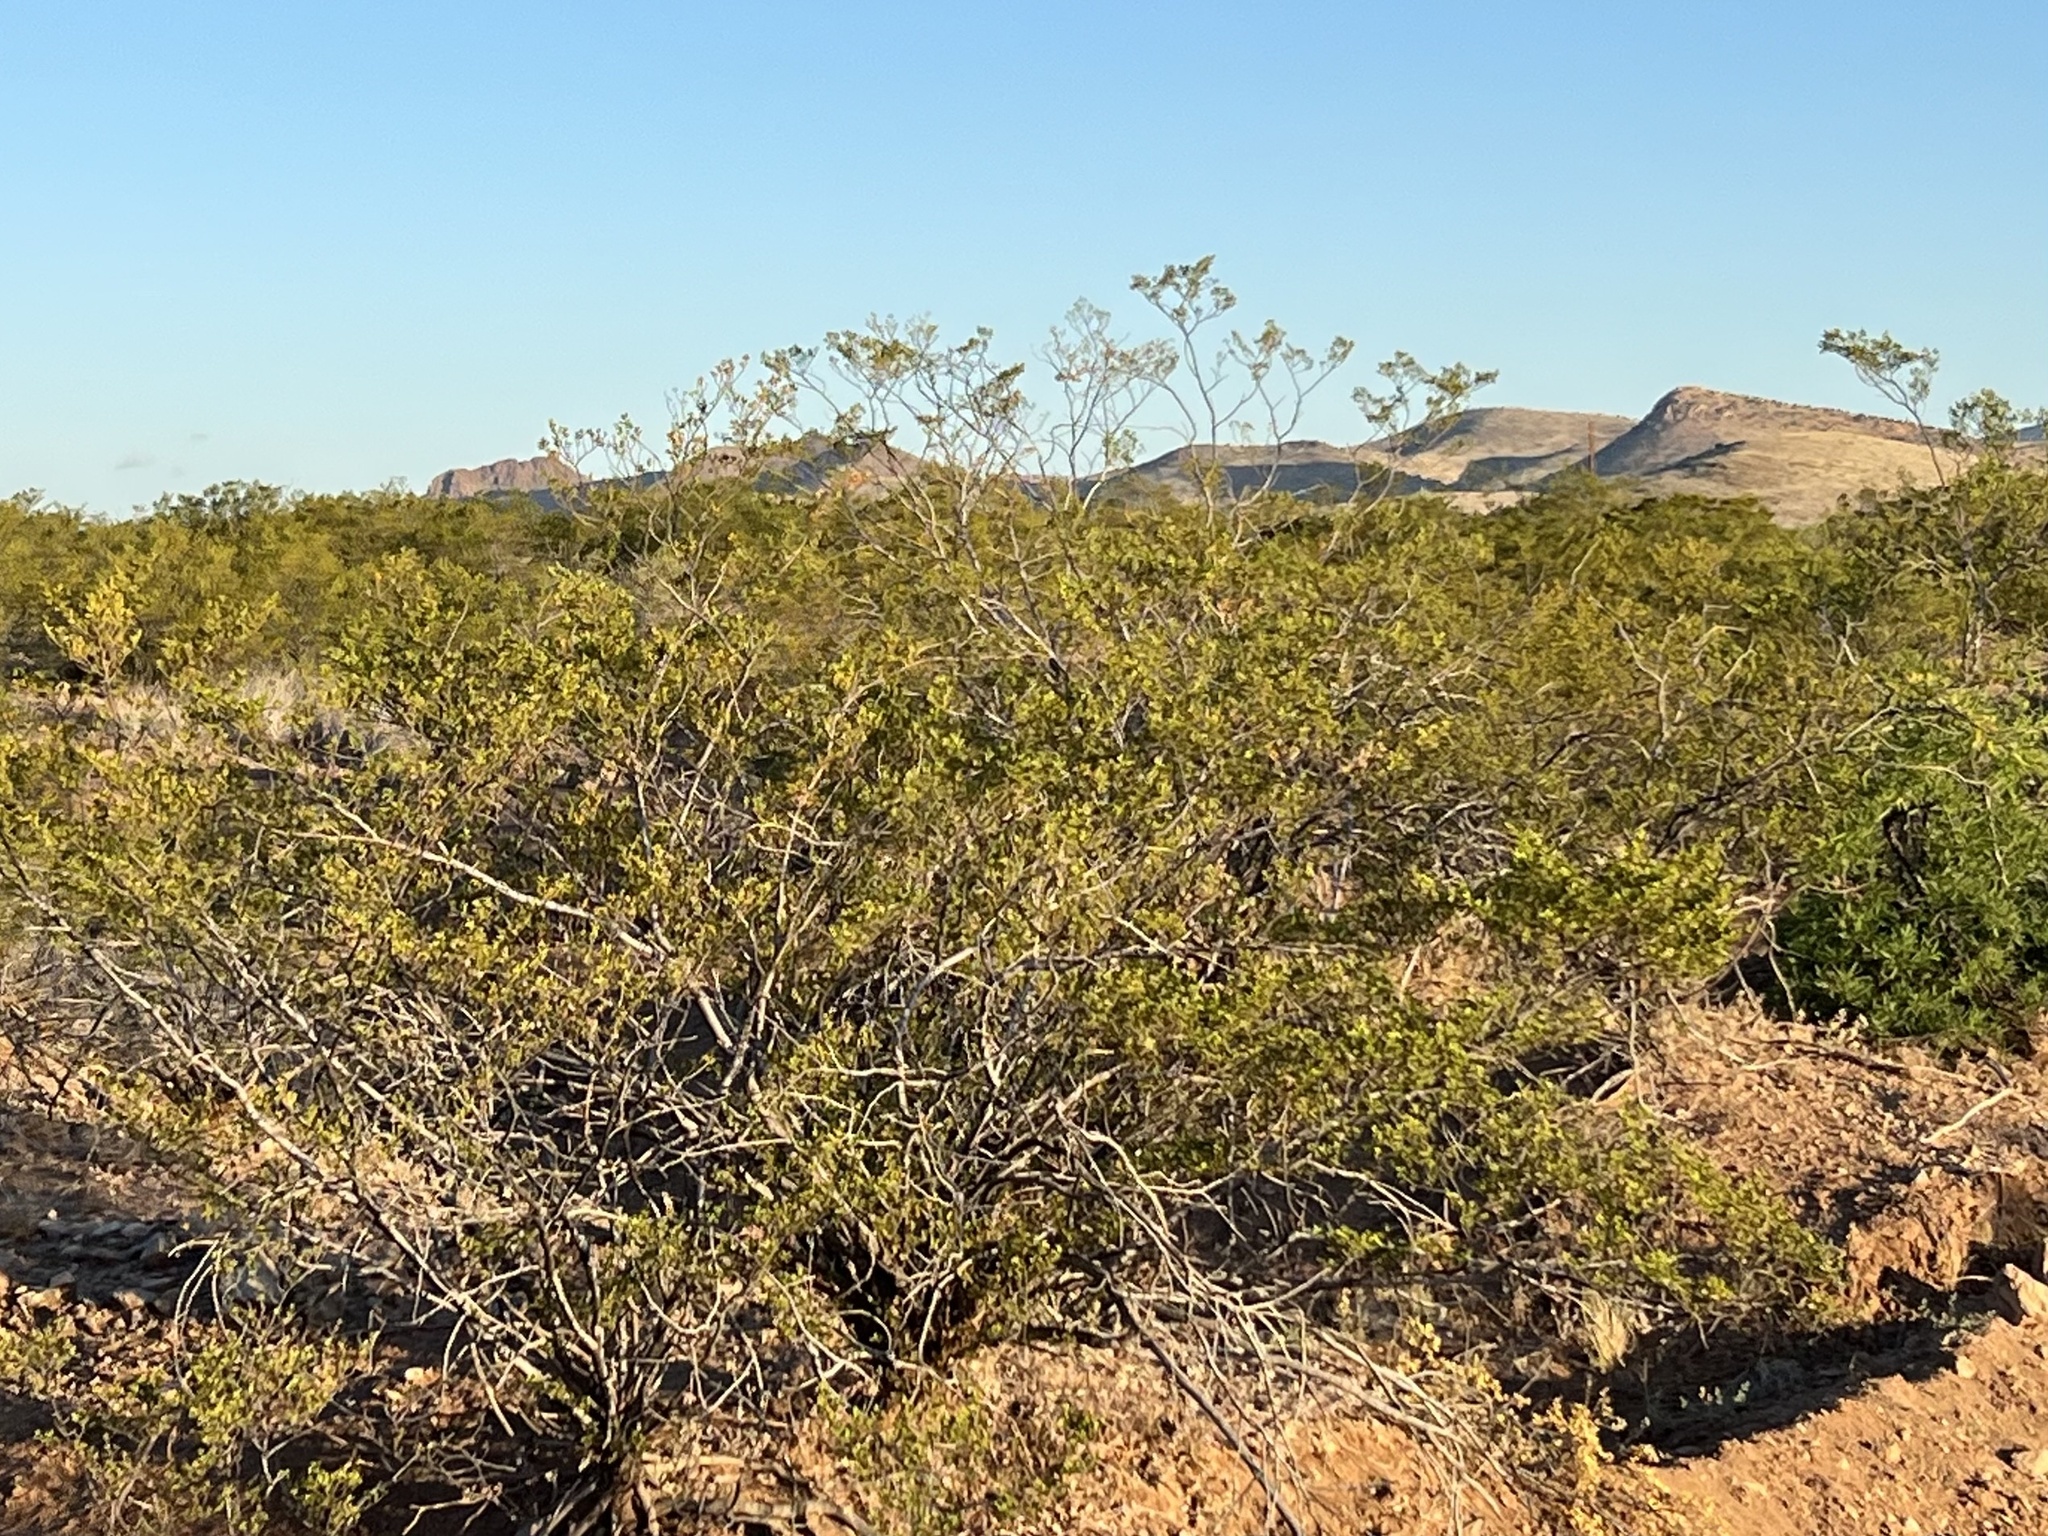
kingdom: Plantae
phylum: Tracheophyta
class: Magnoliopsida
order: Zygophyllales
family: Zygophyllaceae
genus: Larrea
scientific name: Larrea tridentata
